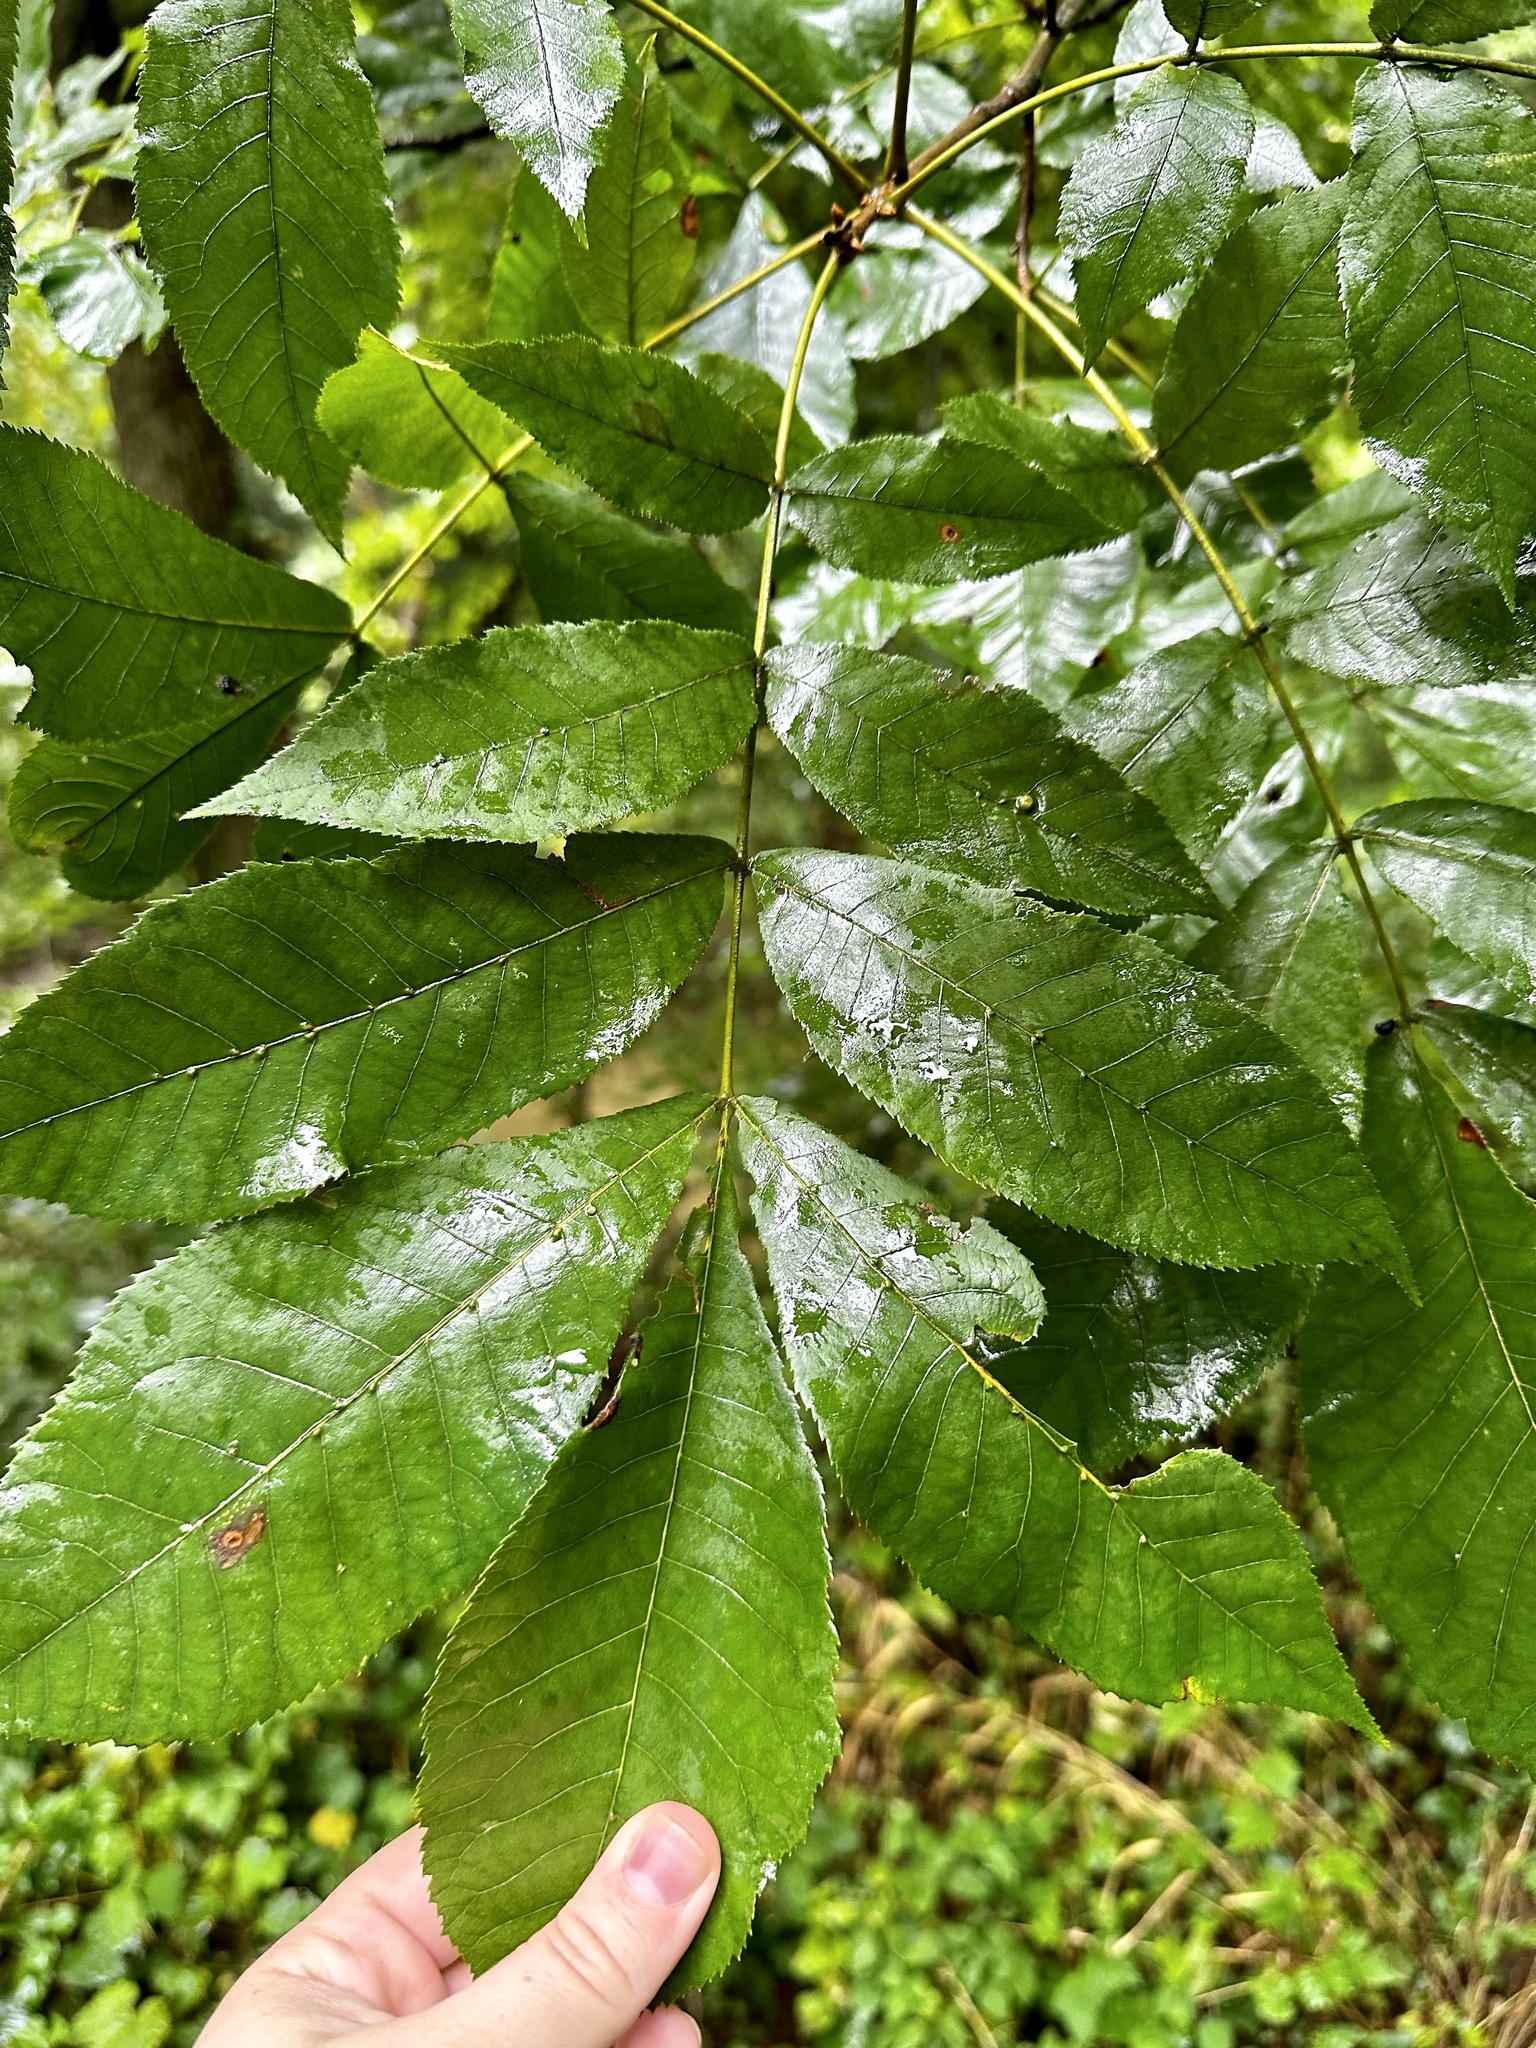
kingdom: Plantae
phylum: Tracheophyta
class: Magnoliopsida
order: Fagales
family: Juglandaceae
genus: Carya
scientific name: Carya cordiformis
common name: Bitternut hickory
